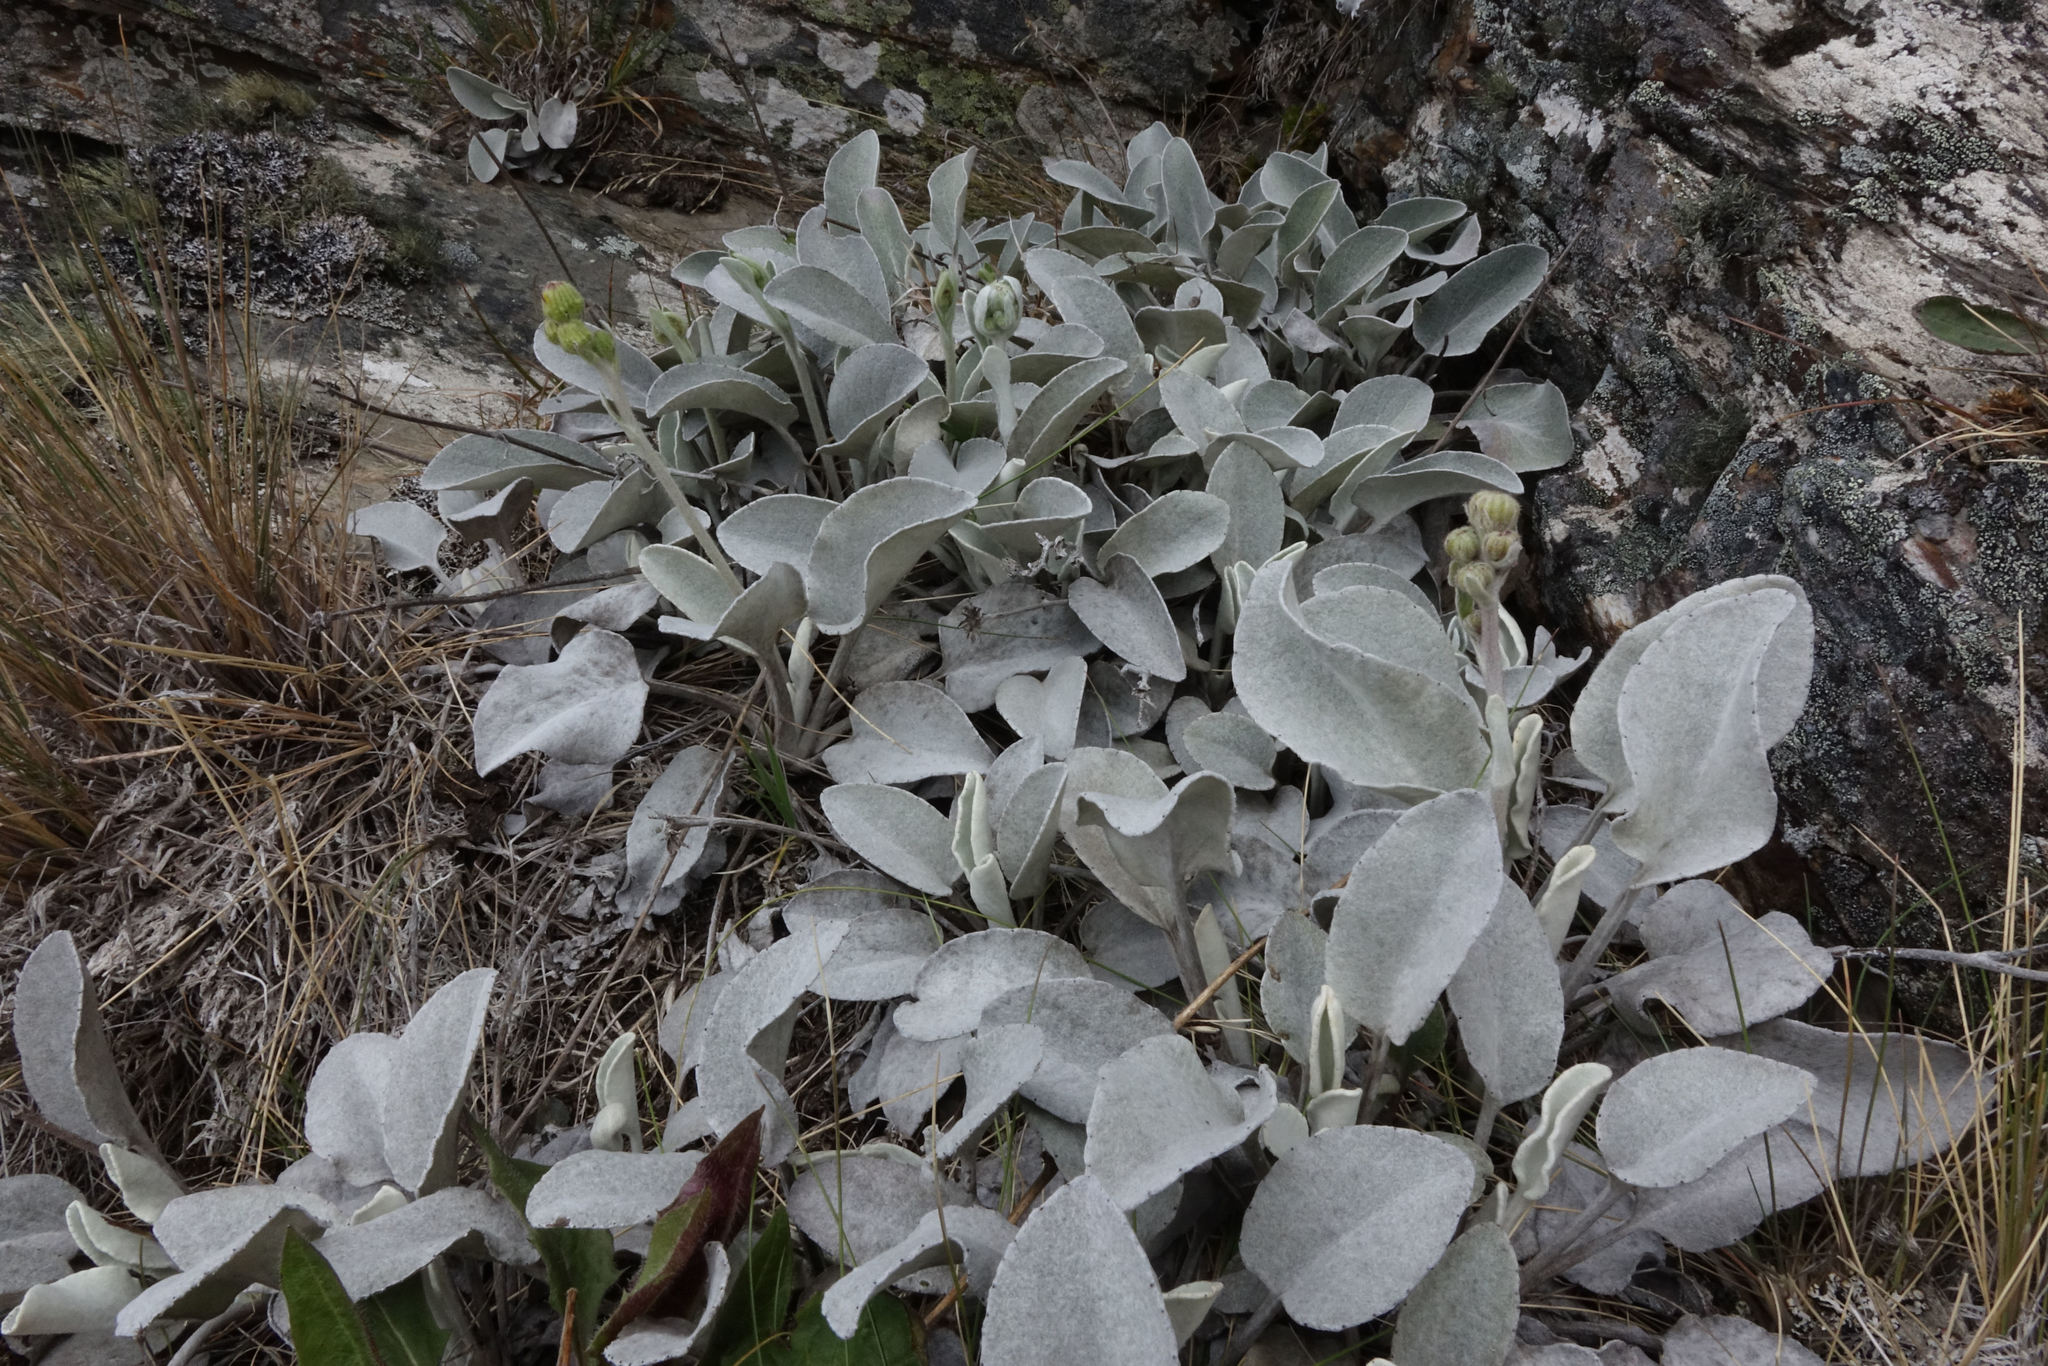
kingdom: Plantae
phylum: Tracheophyta
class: Magnoliopsida
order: Asterales
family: Asteraceae
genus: Brachyglottis
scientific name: Brachyglottis haastii
